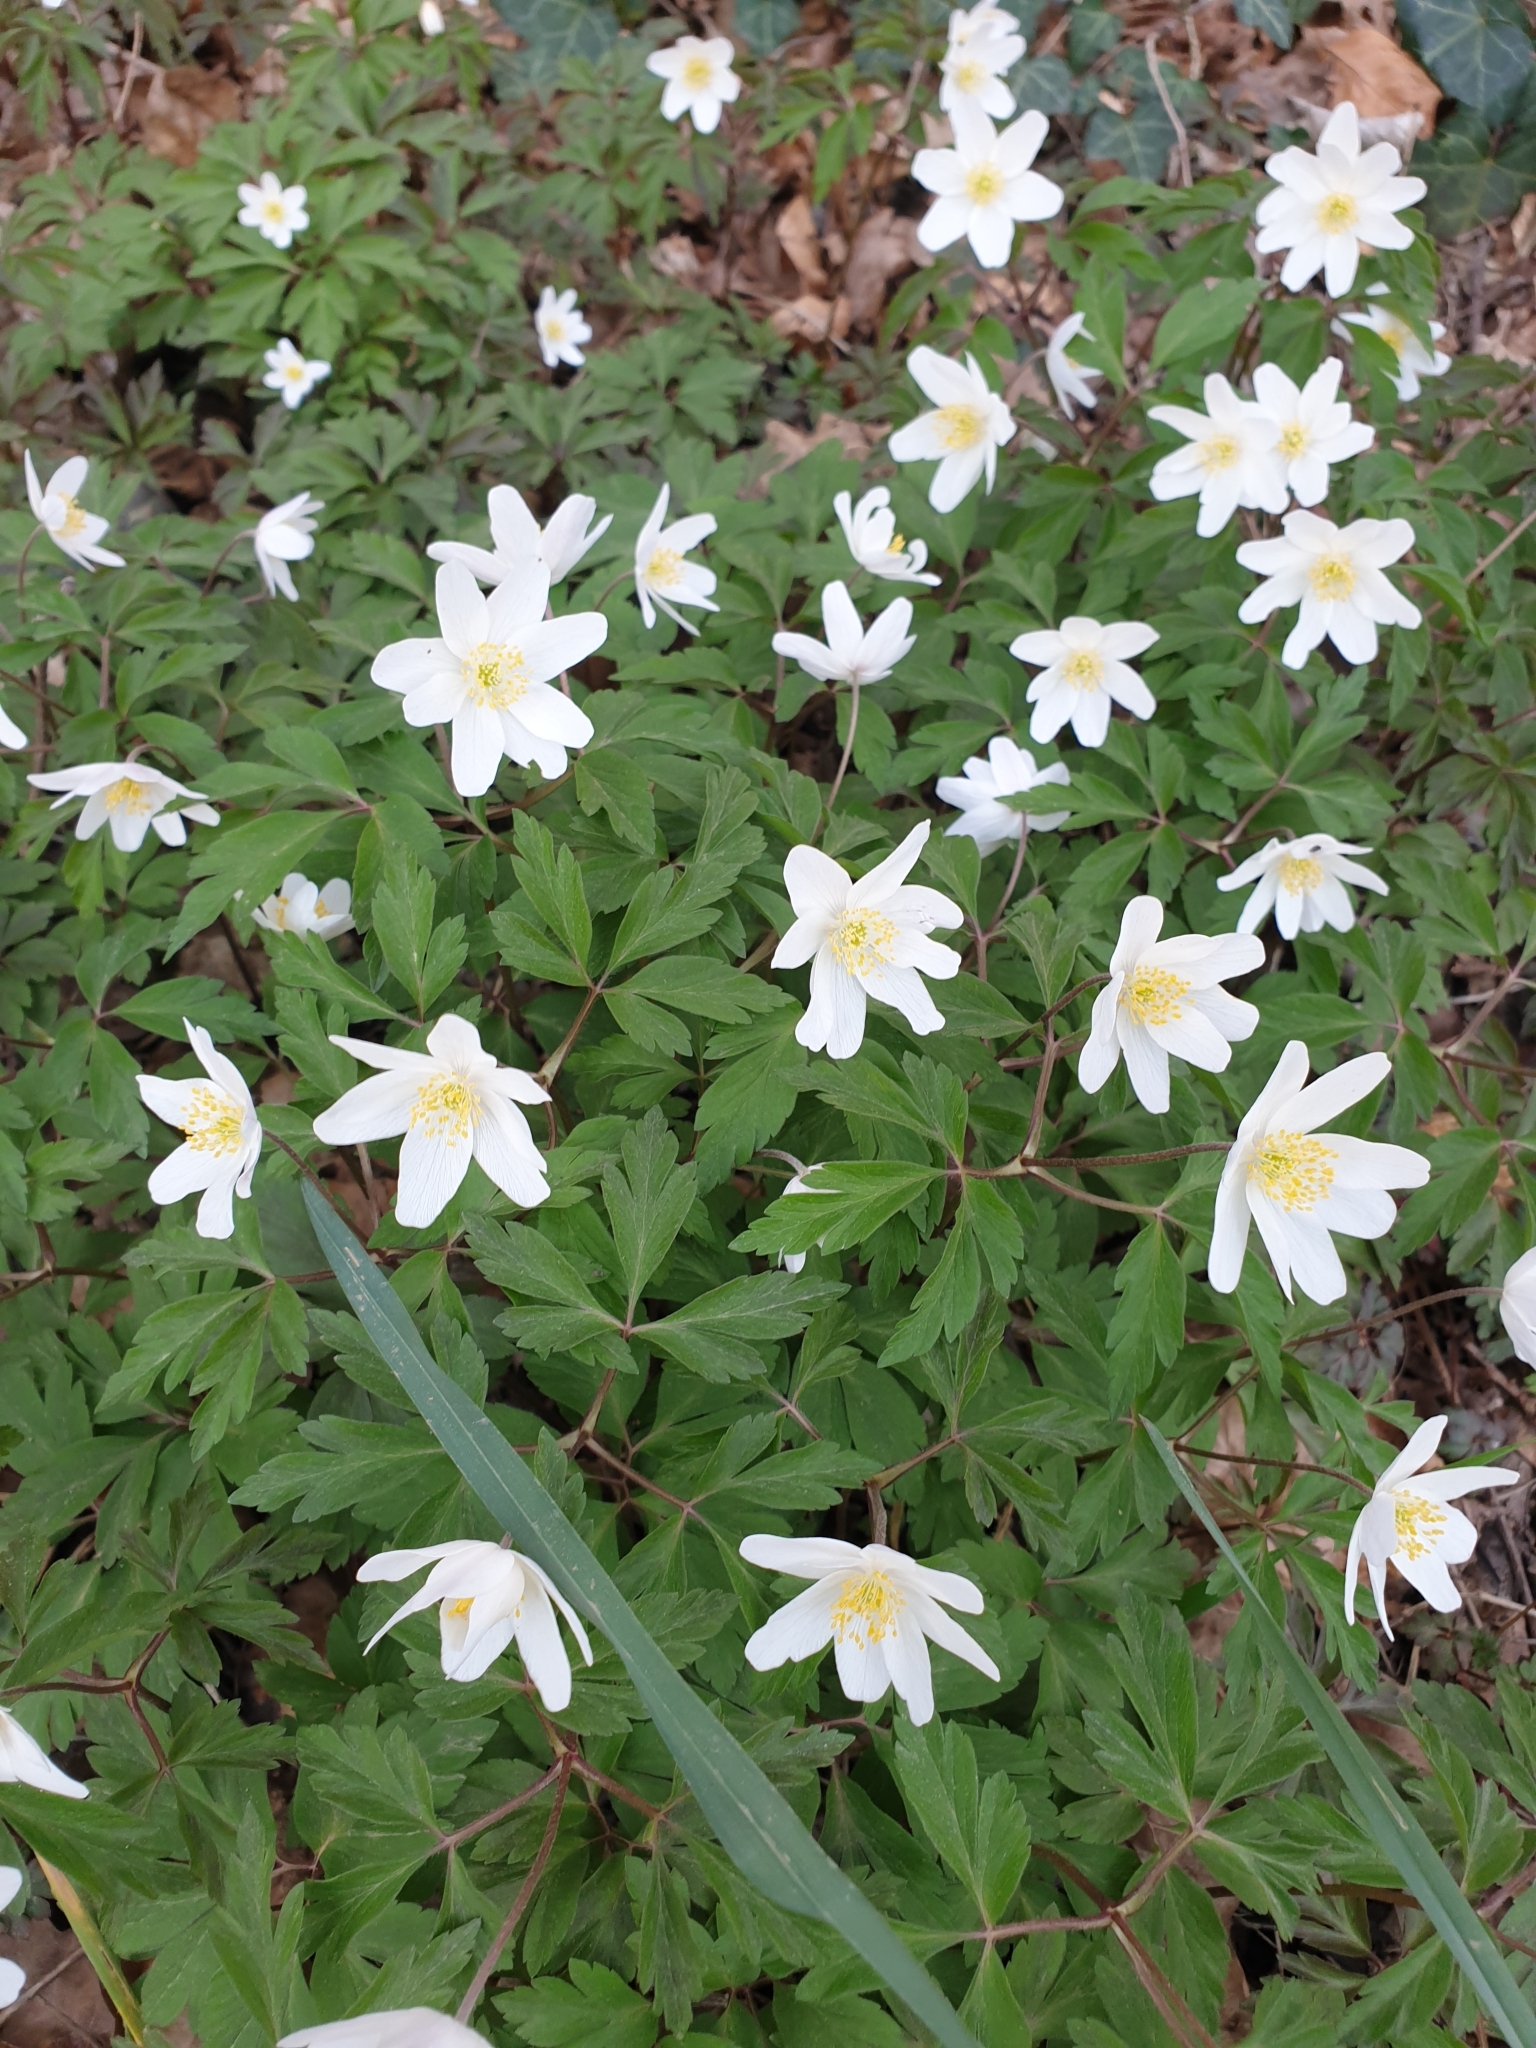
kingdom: Plantae
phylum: Tracheophyta
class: Magnoliopsida
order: Ranunculales
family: Ranunculaceae
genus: Anemone
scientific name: Anemone nemorosa
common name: Wood anemone
